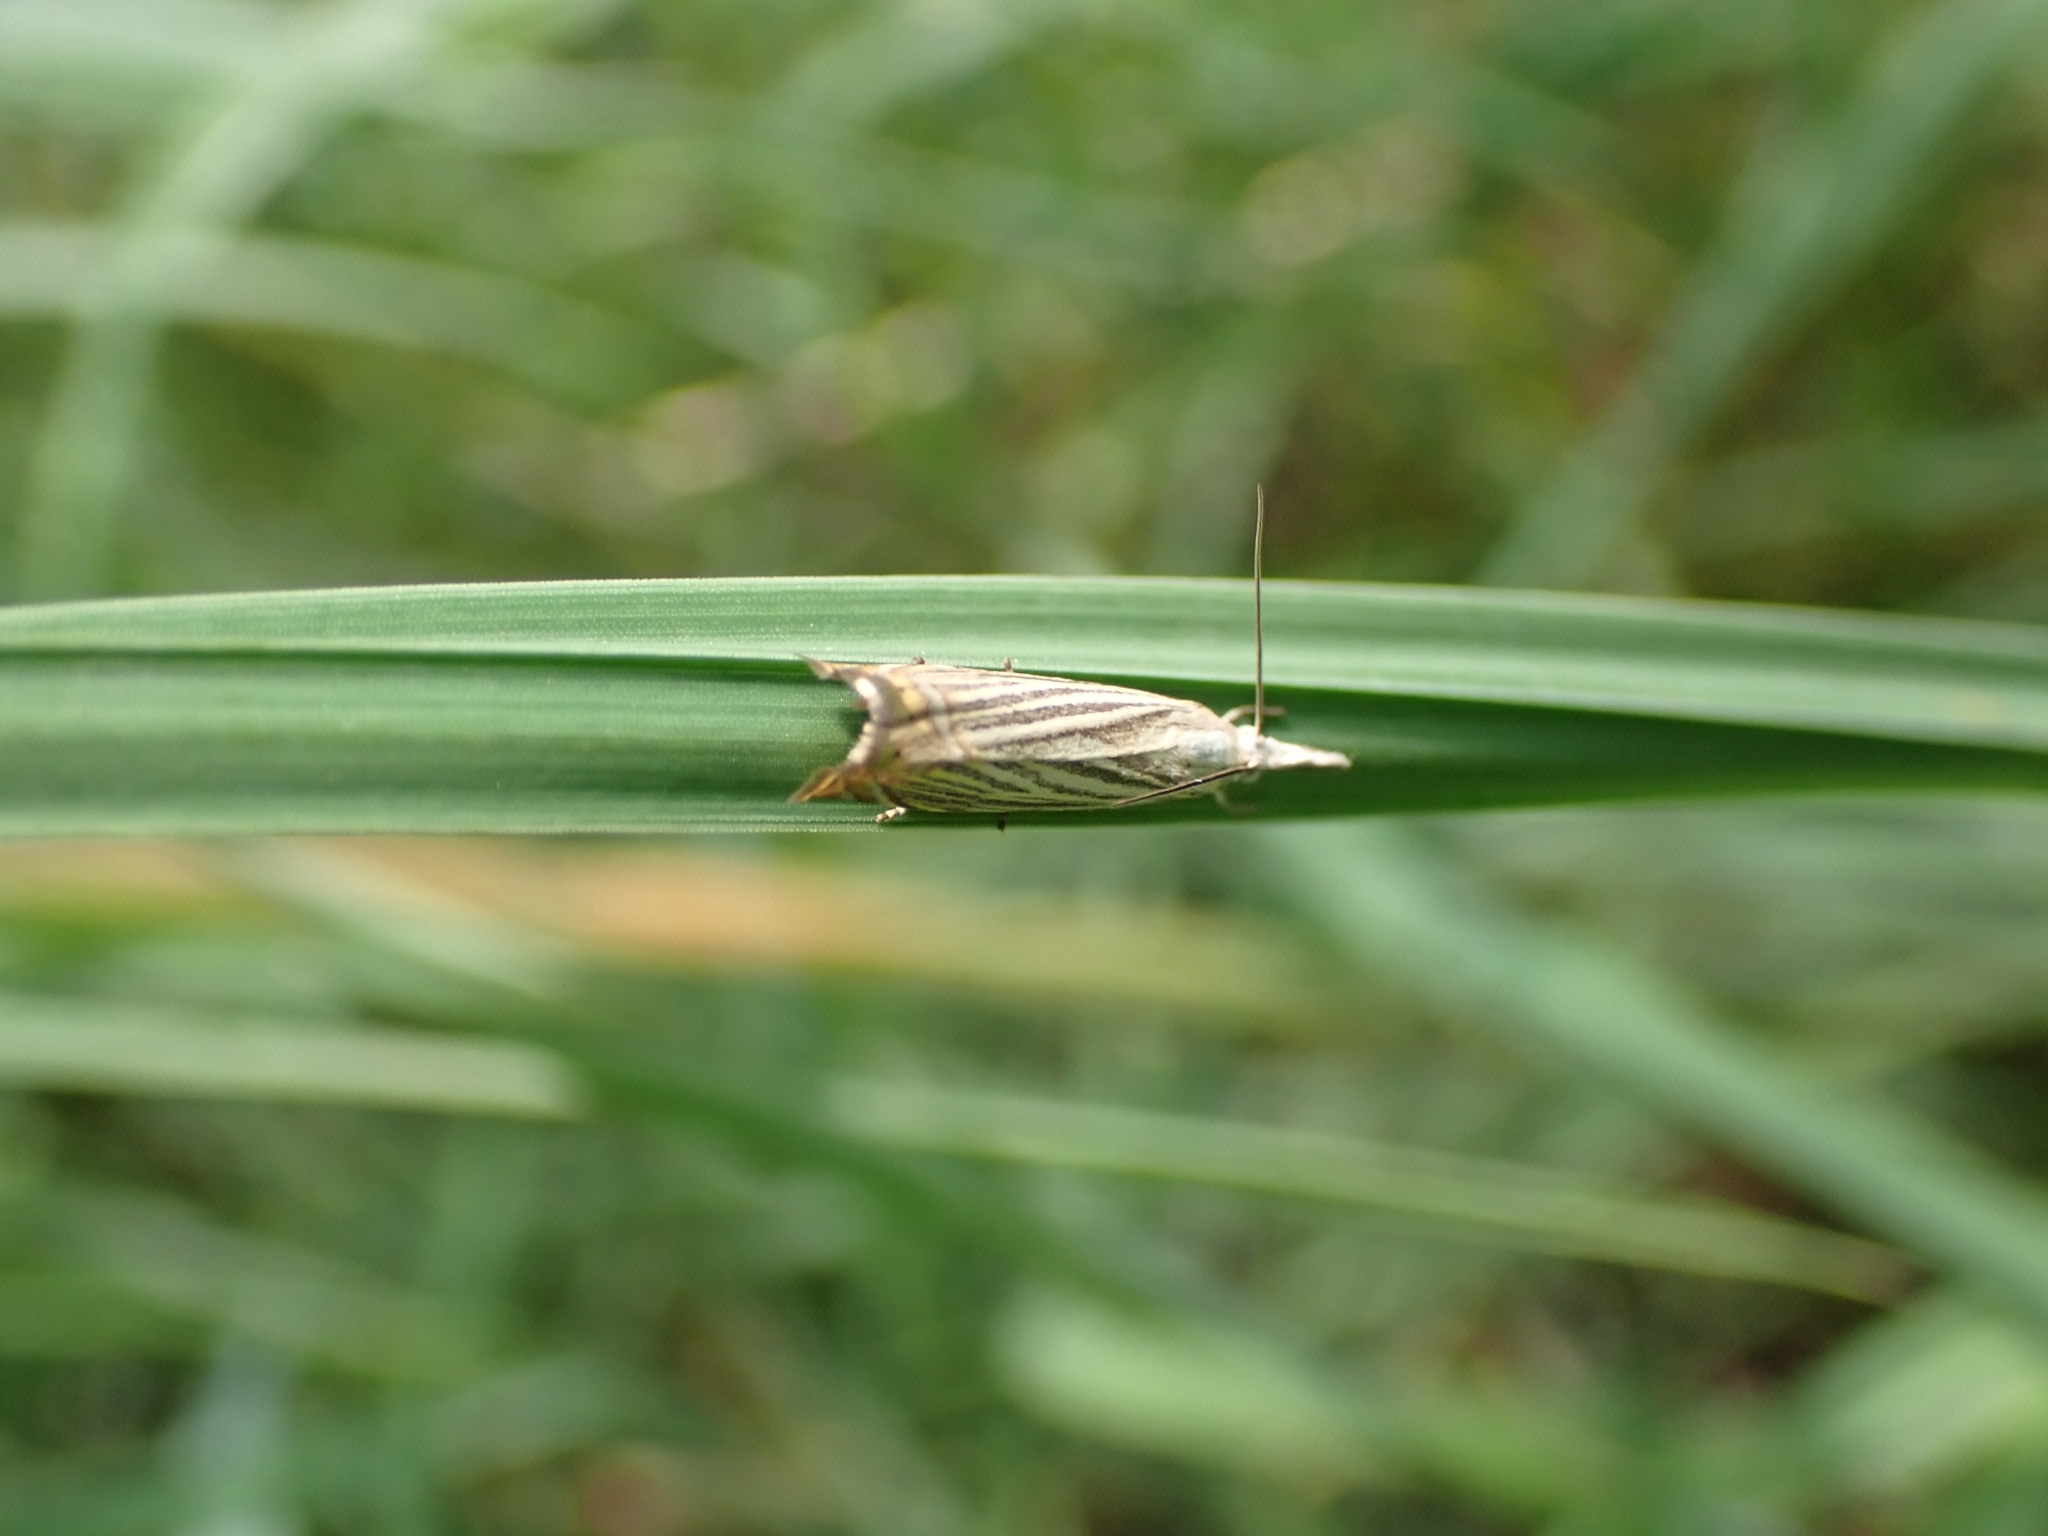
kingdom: Animalia
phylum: Arthropoda
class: Insecta
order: Lepidoptera
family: Crambidae
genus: Chrysoteuchia
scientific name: Chrysoteuchia culmella
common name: Garden grass-veneer
